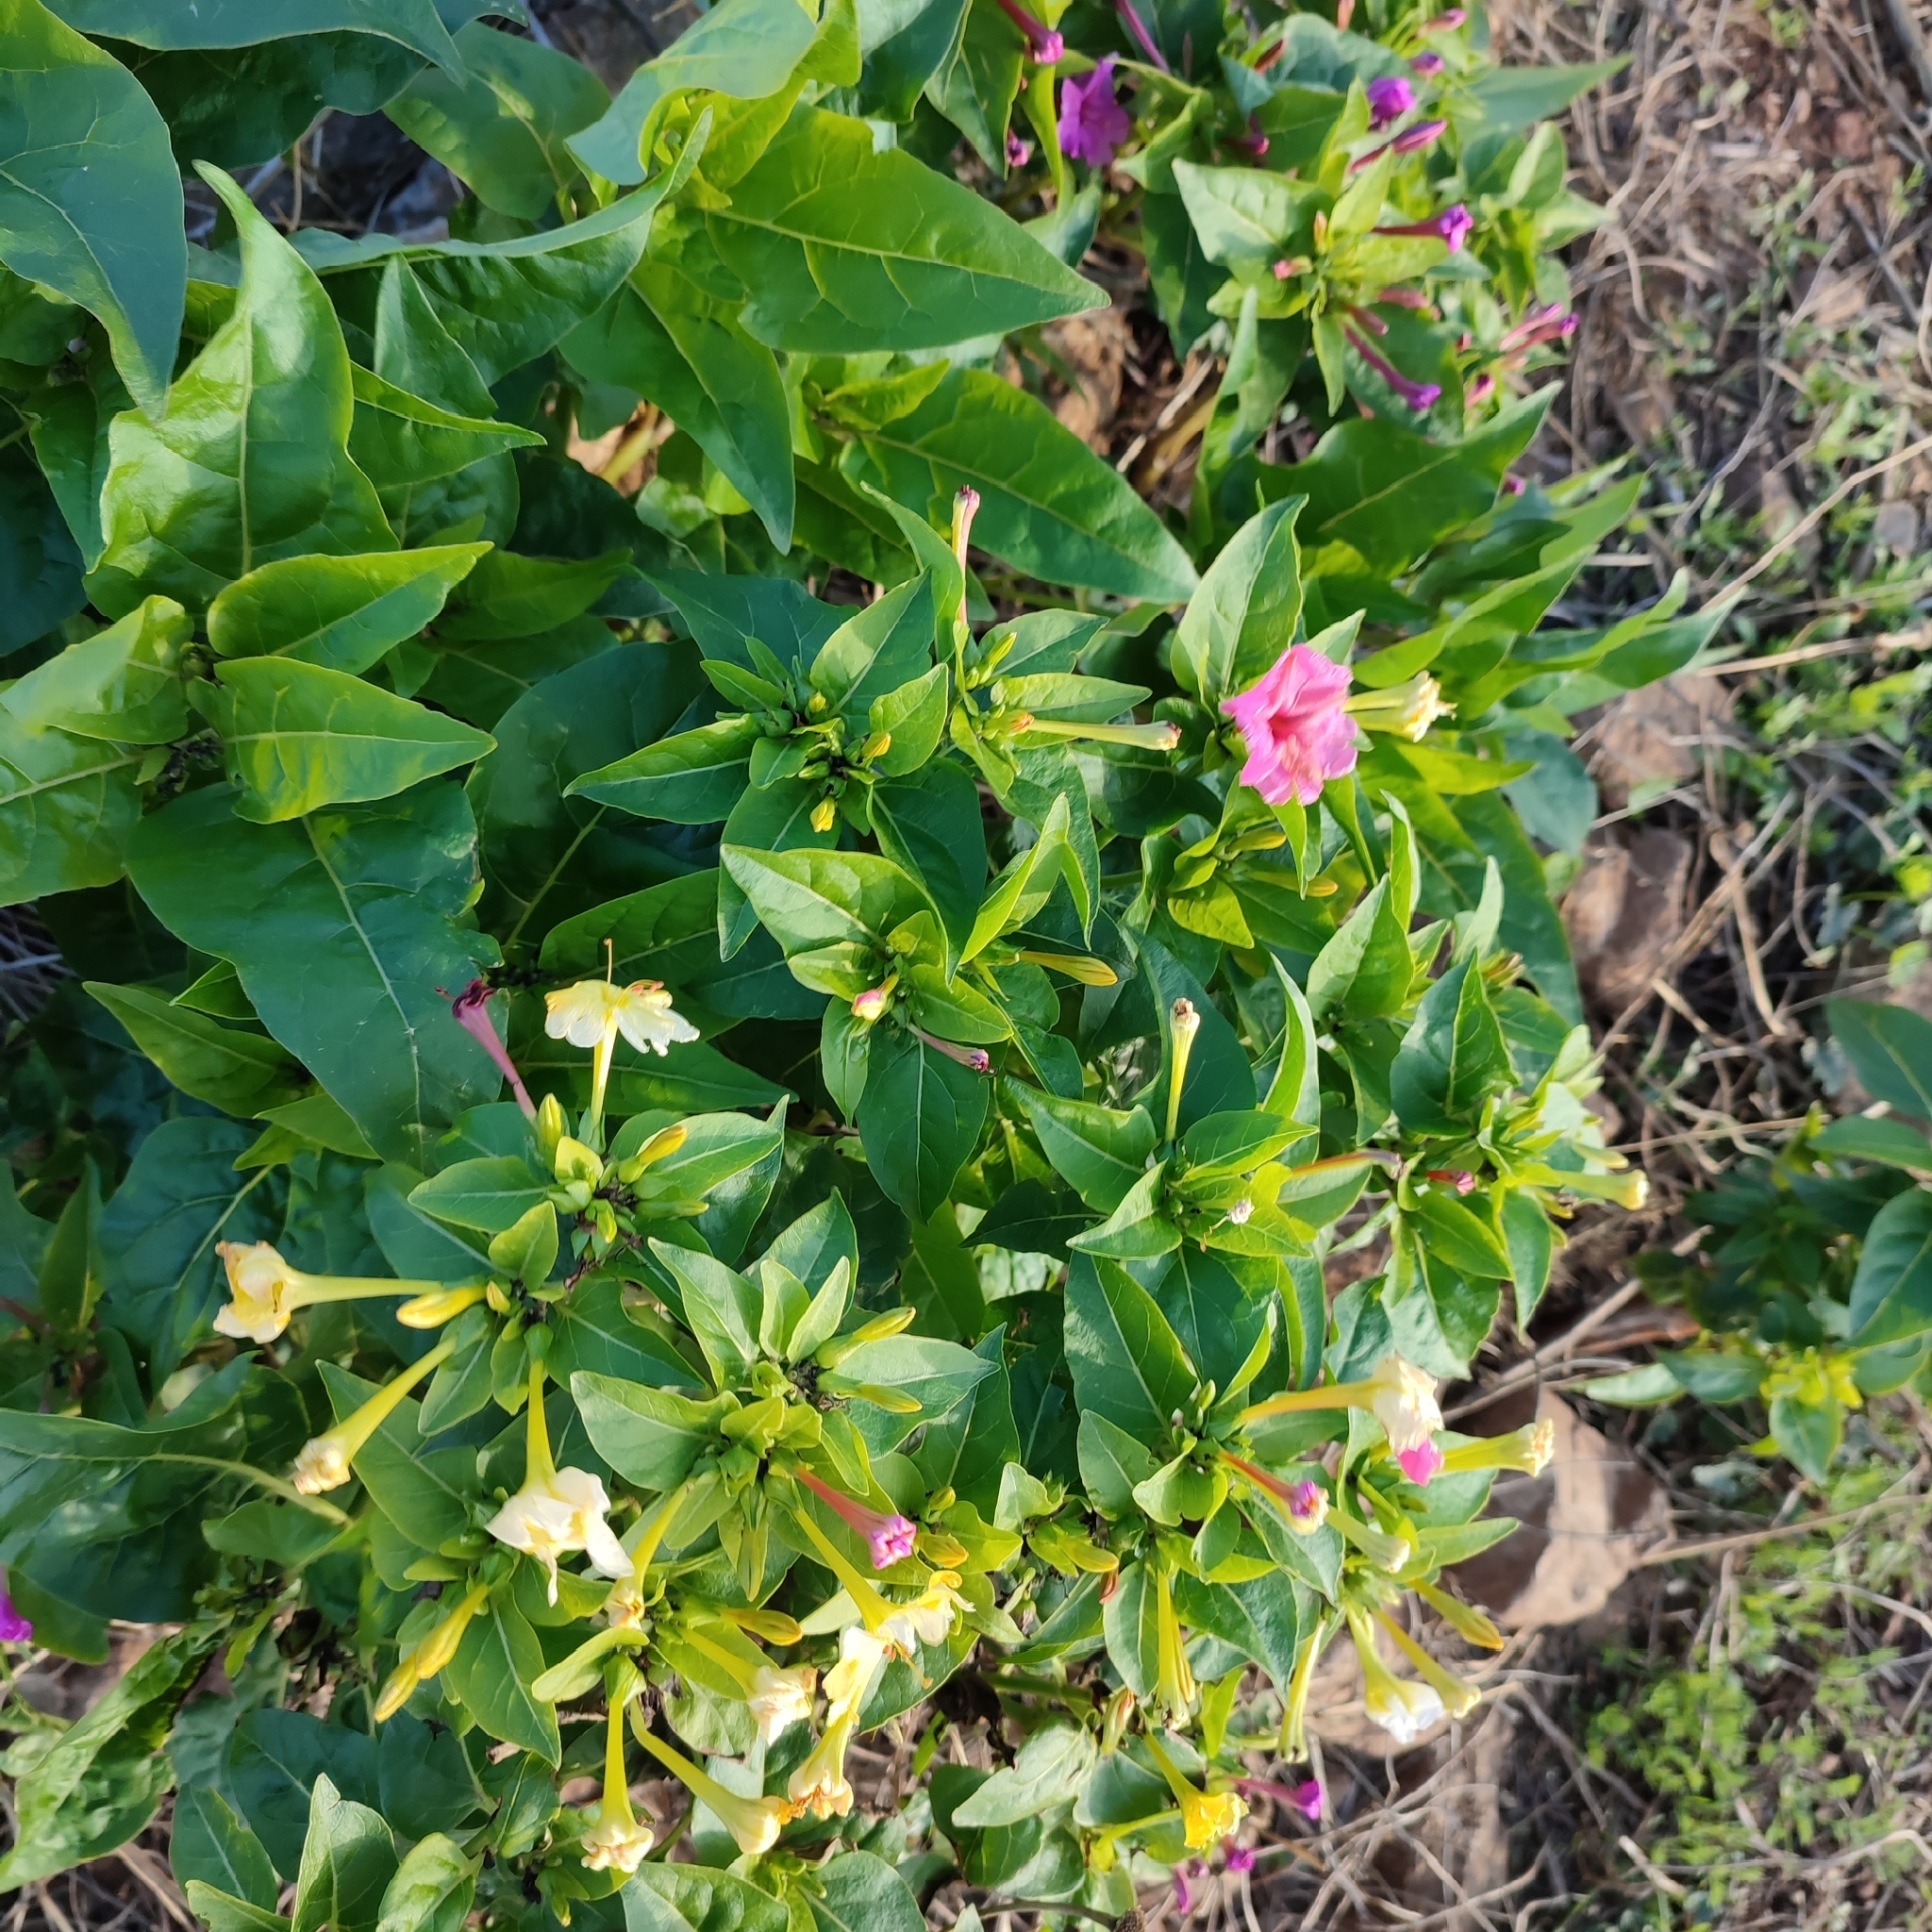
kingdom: Plantae
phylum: Tracheophyta
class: Magnoliopsida
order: Caryophyllales
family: Nyctaginaceae
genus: Mirabilis
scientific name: Mirabilis jalapa
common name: Marvel-of-peru
